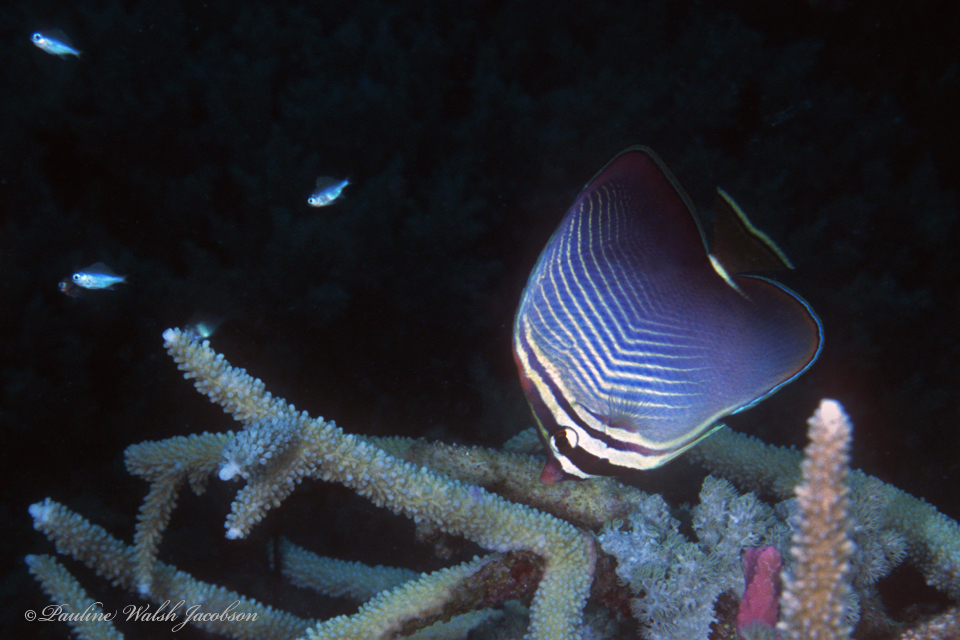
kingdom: Animalia
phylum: Chordata
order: Perciformes
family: Chaetodontidae
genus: Chaetodon
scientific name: Chaetodon baronessa
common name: Triangular butterflyfish
